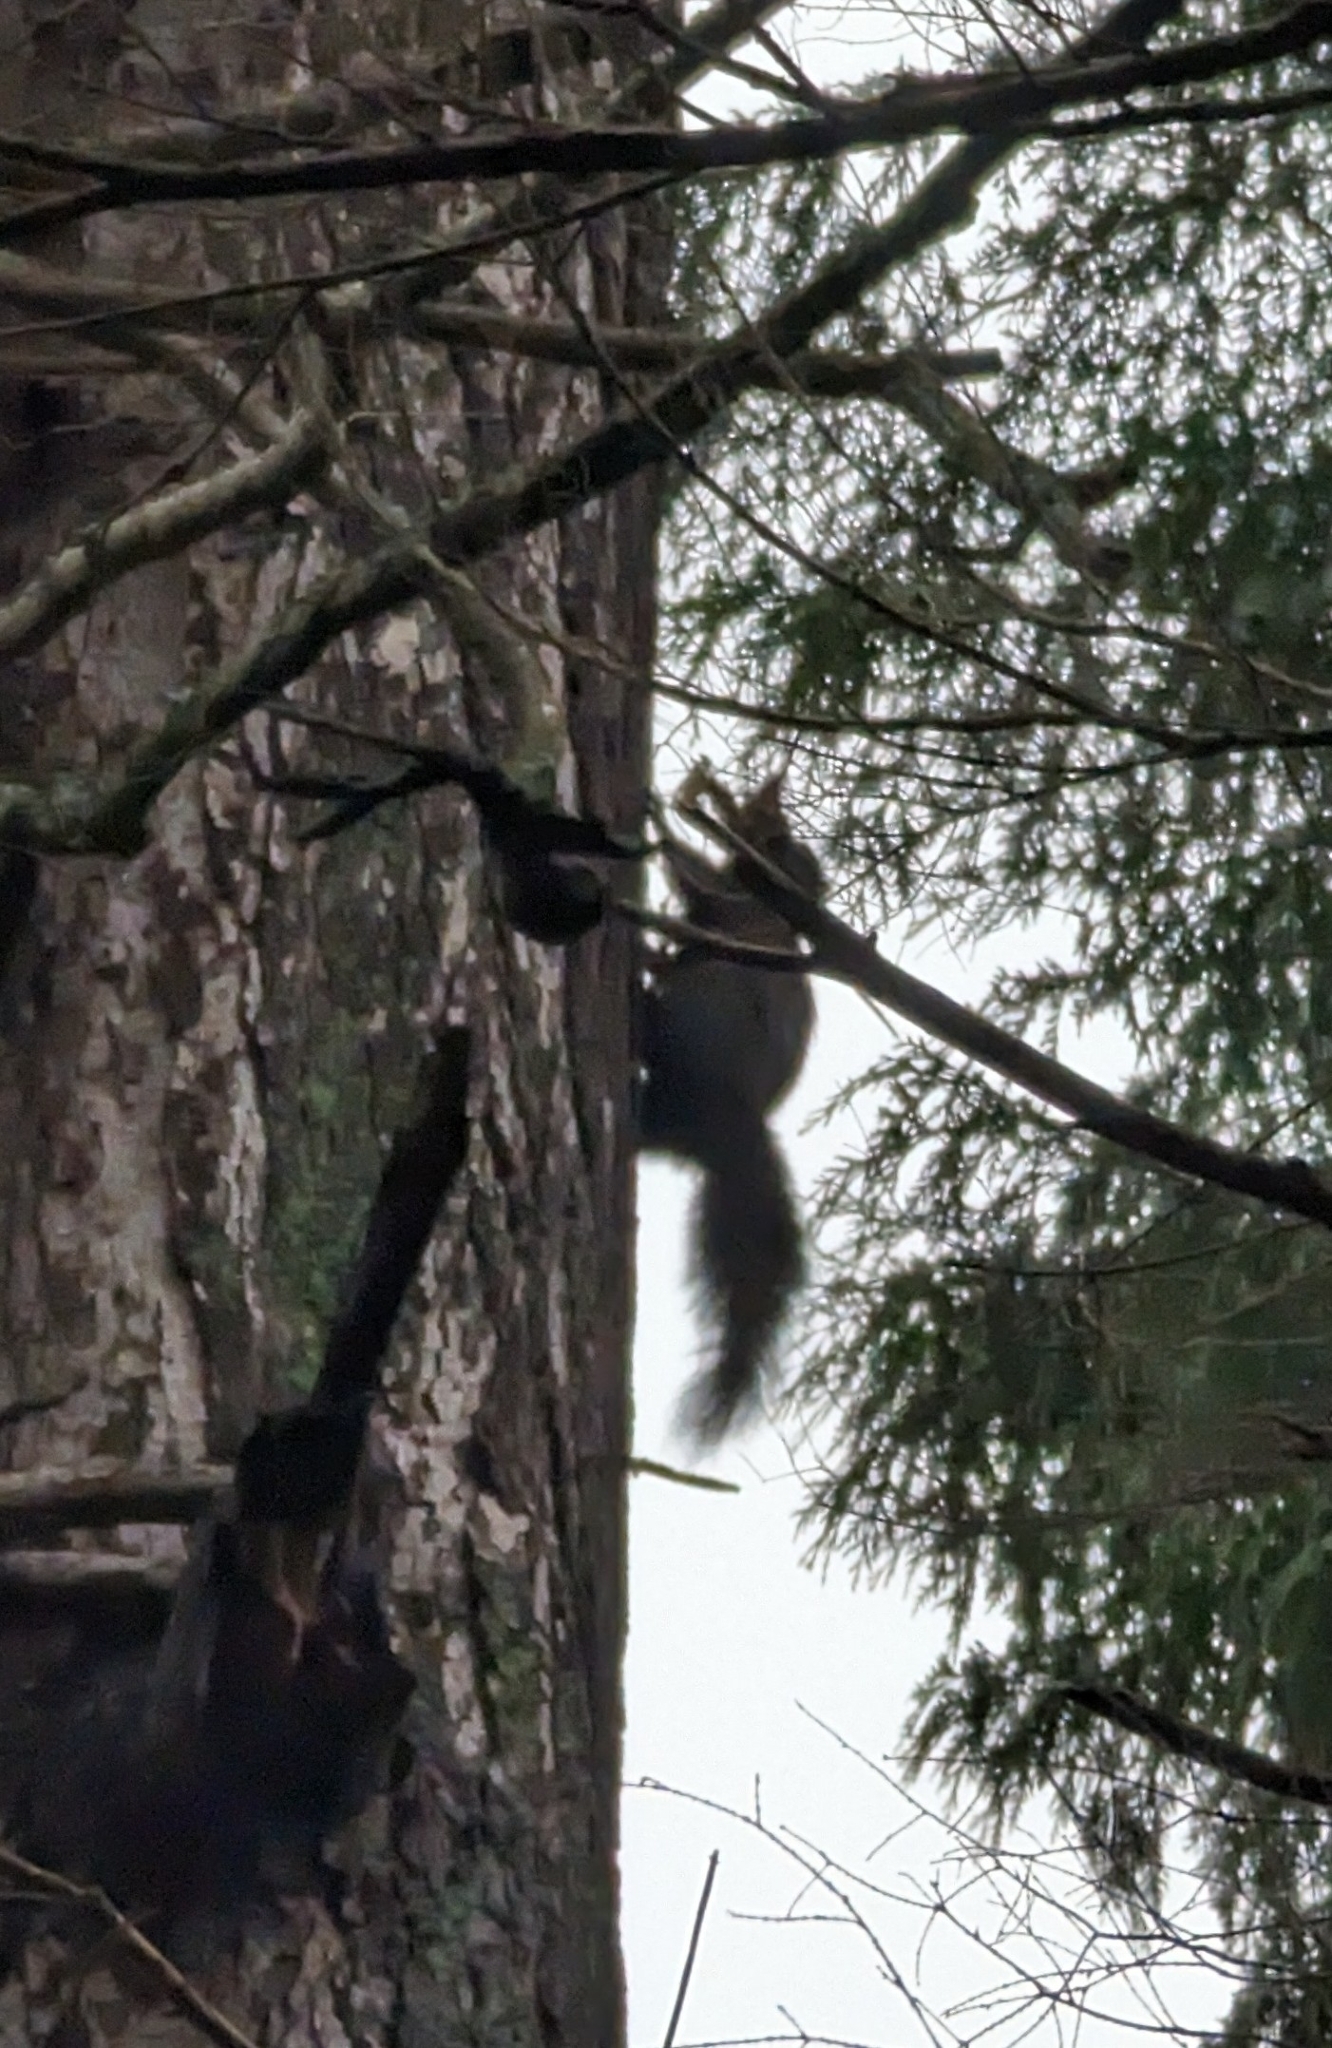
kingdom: Animalia
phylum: Chordata
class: Mammalia
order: Rodentia
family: Sciuridae
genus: Sciurus
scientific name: Sciurus carolinensis
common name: Eastern gray squirrel
